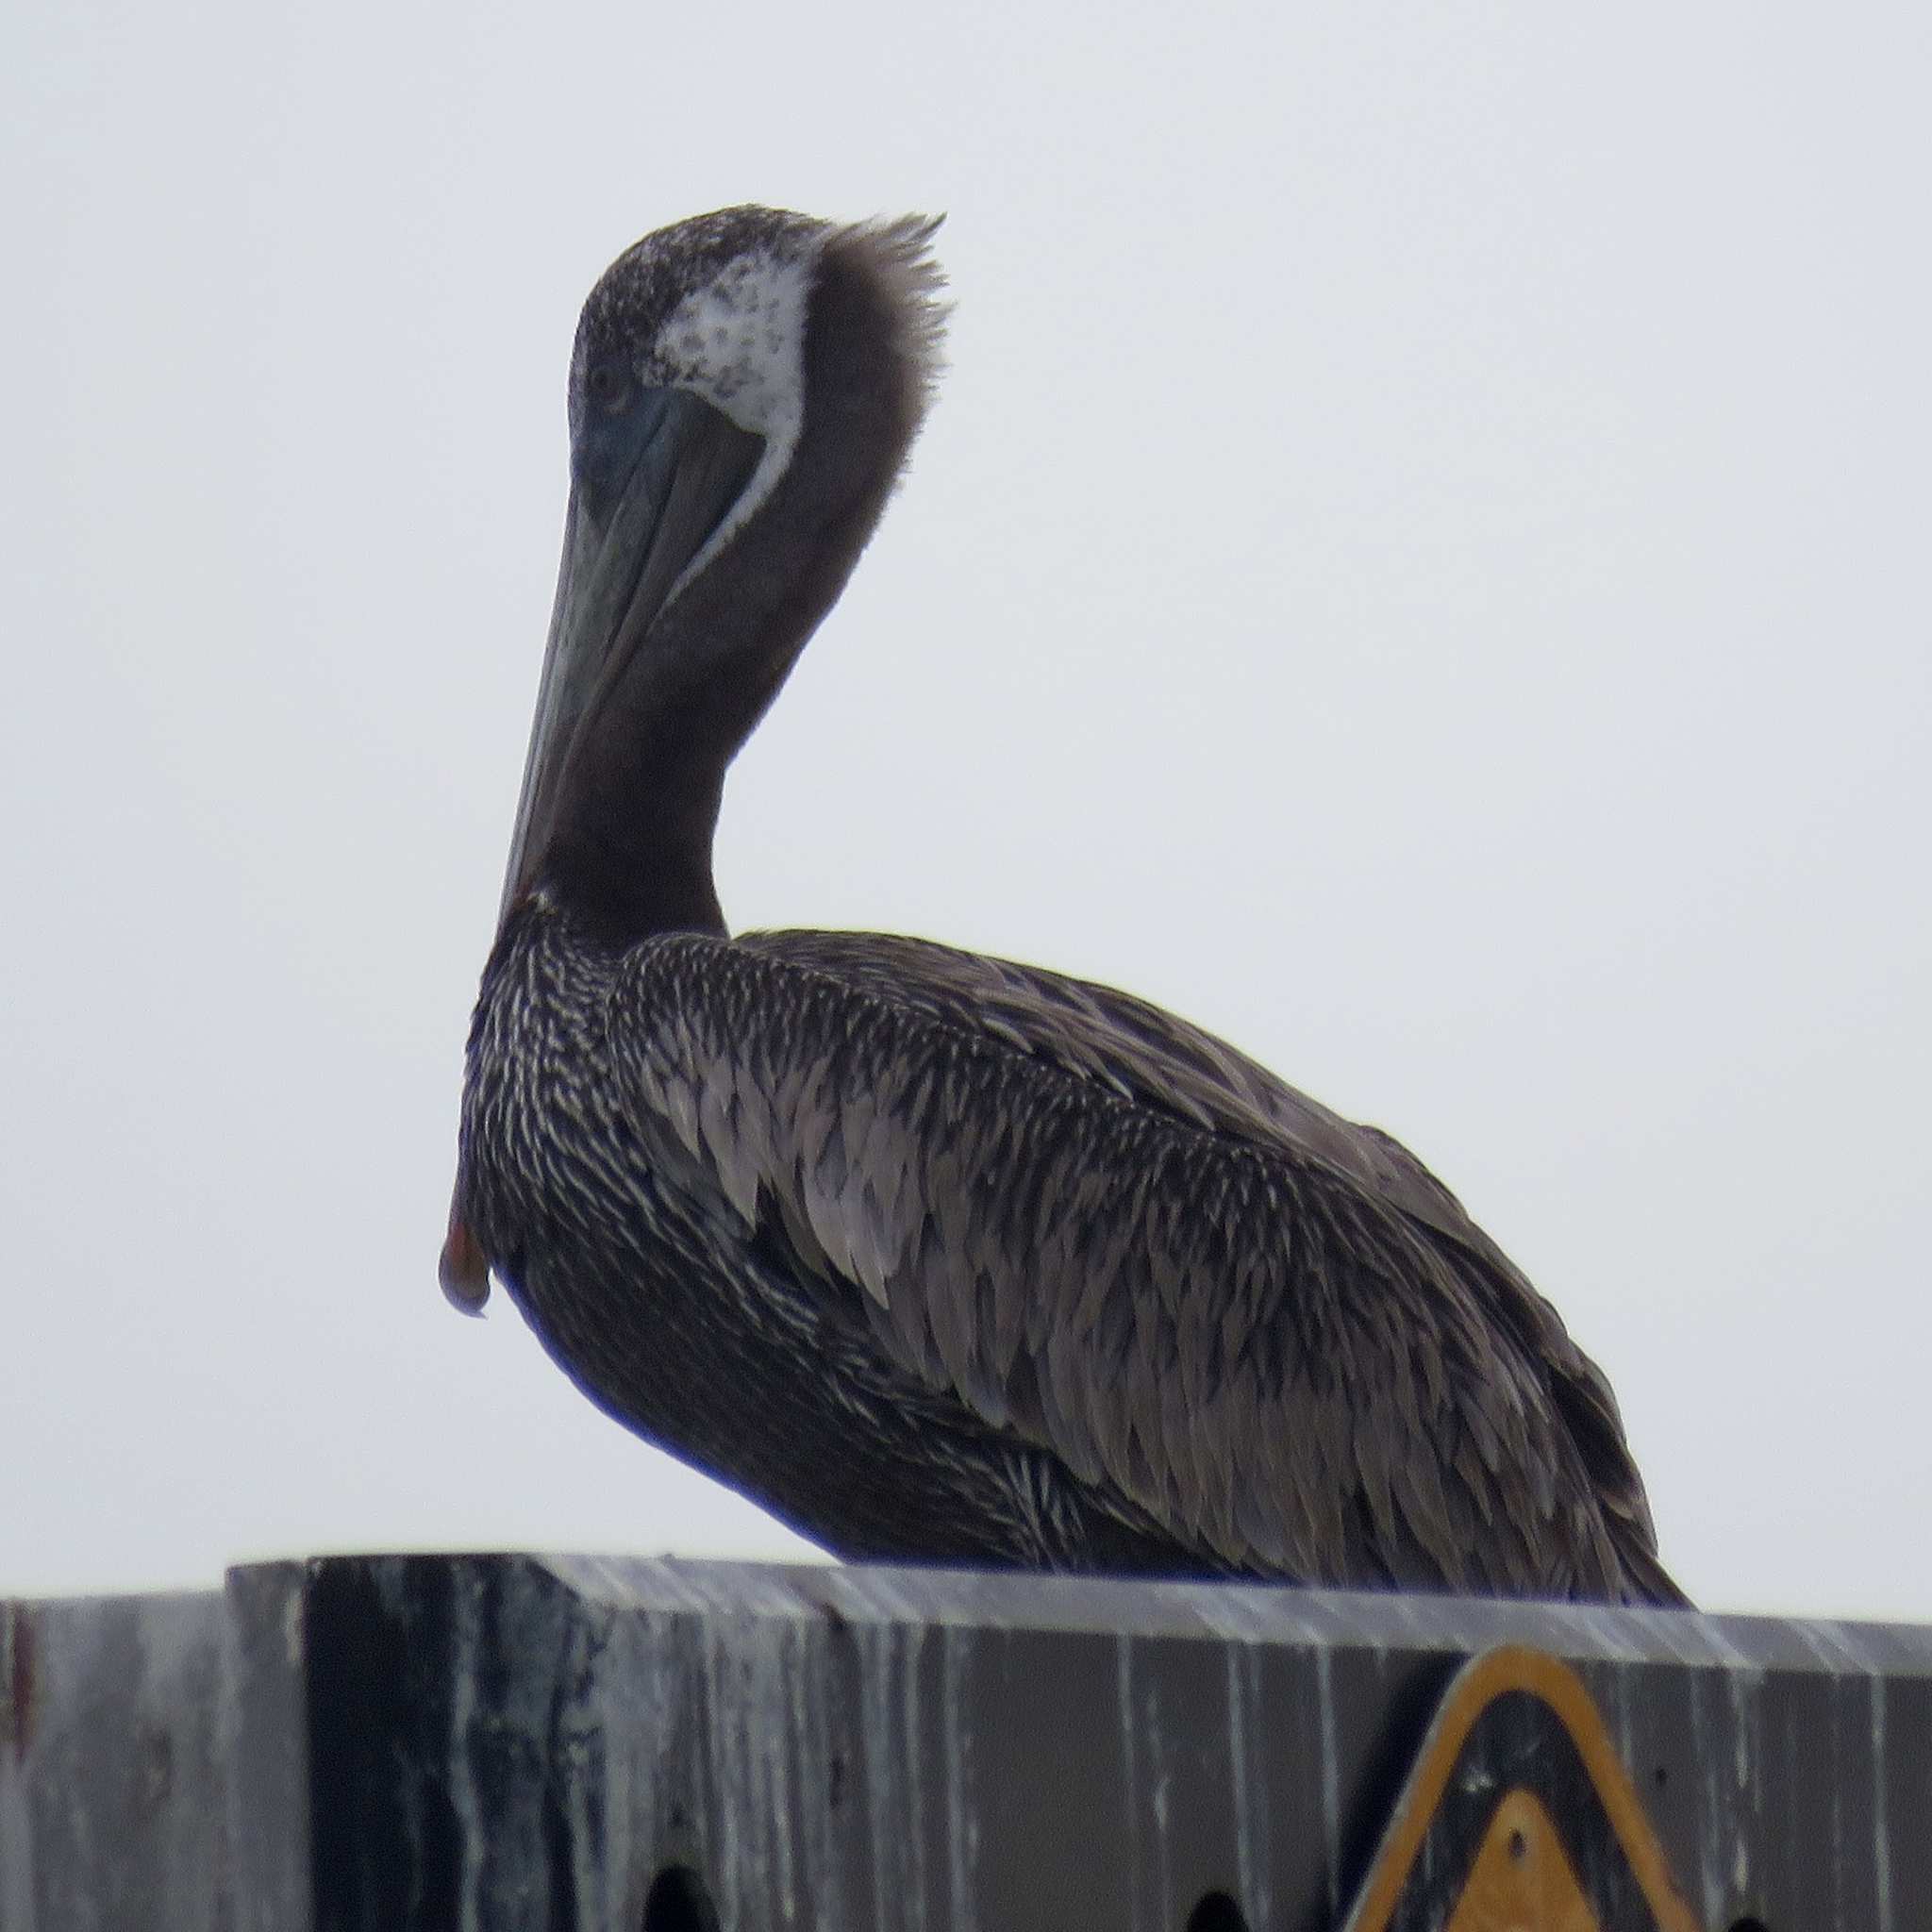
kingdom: Animalia
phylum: Chordata
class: Aves
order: Pelecaniformes
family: Pelecanidae
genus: Pelecanus
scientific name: Pelecanus occidentalis
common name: Brown pelican
